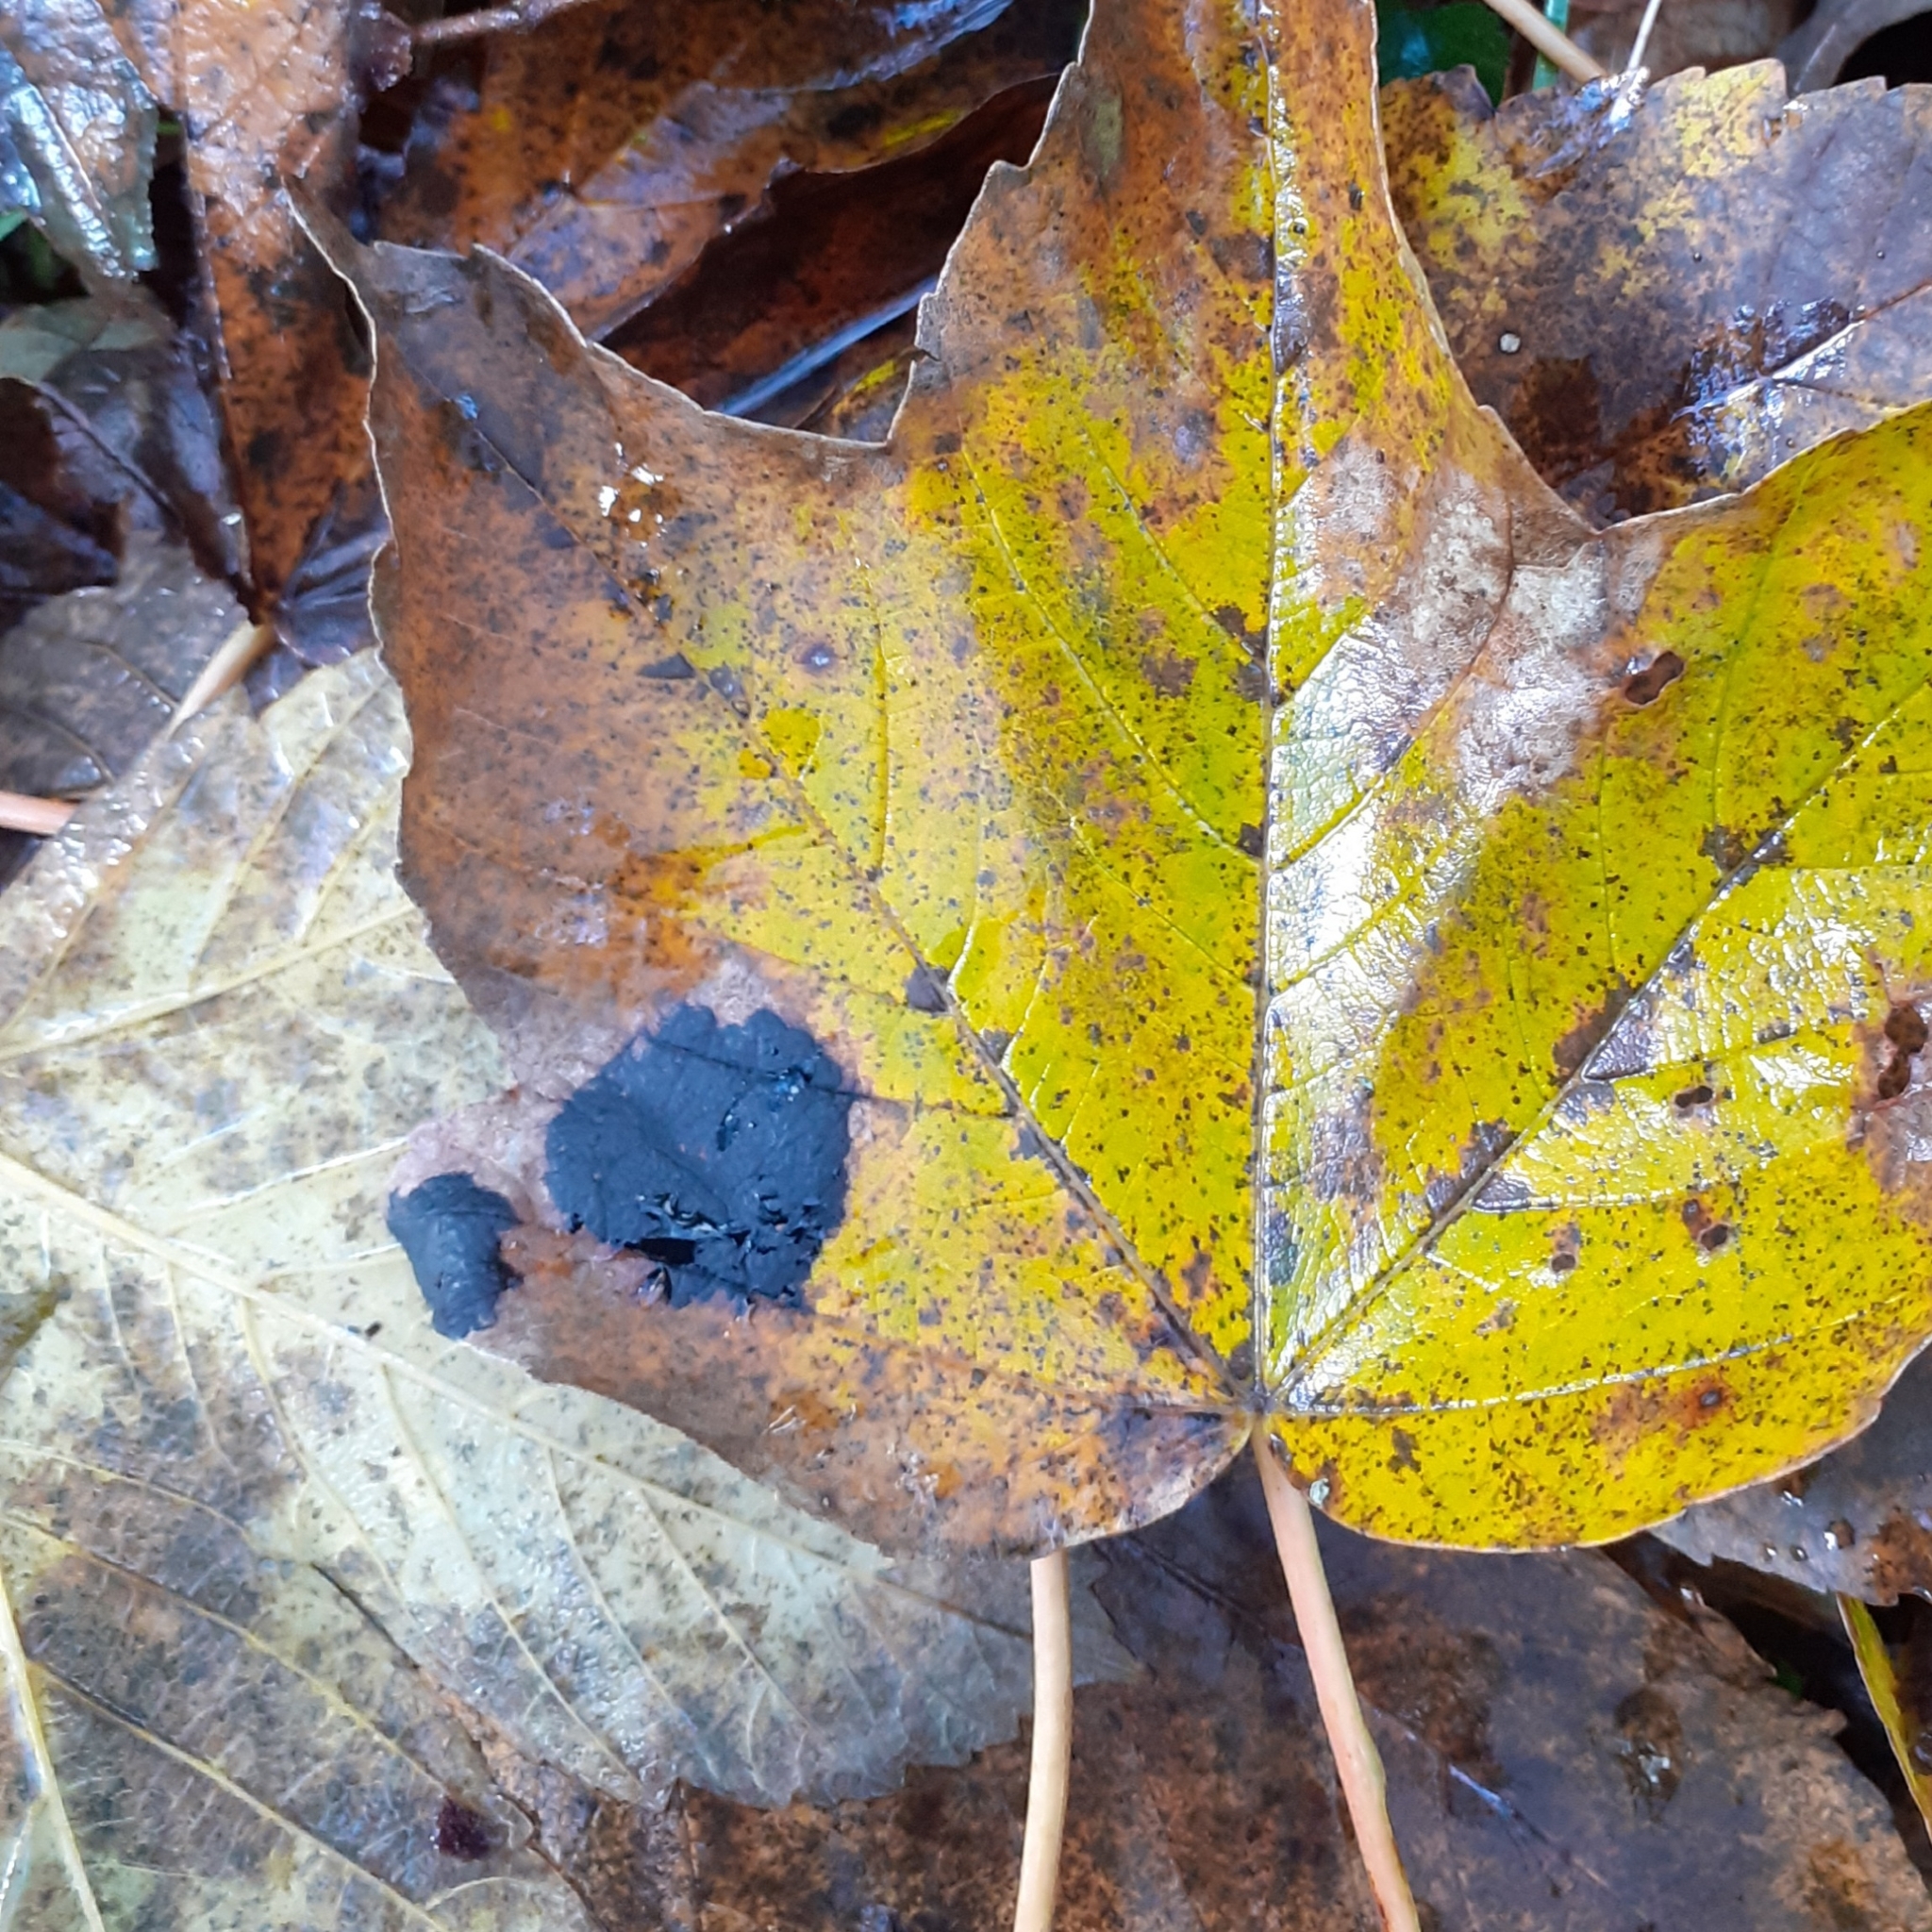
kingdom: Fungi
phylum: Ascomycota
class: Leotiomycetes
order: Rhytismatales
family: Rhytismataceae
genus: Rhytisma
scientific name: Rhytisma acerinum
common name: European tar spot
